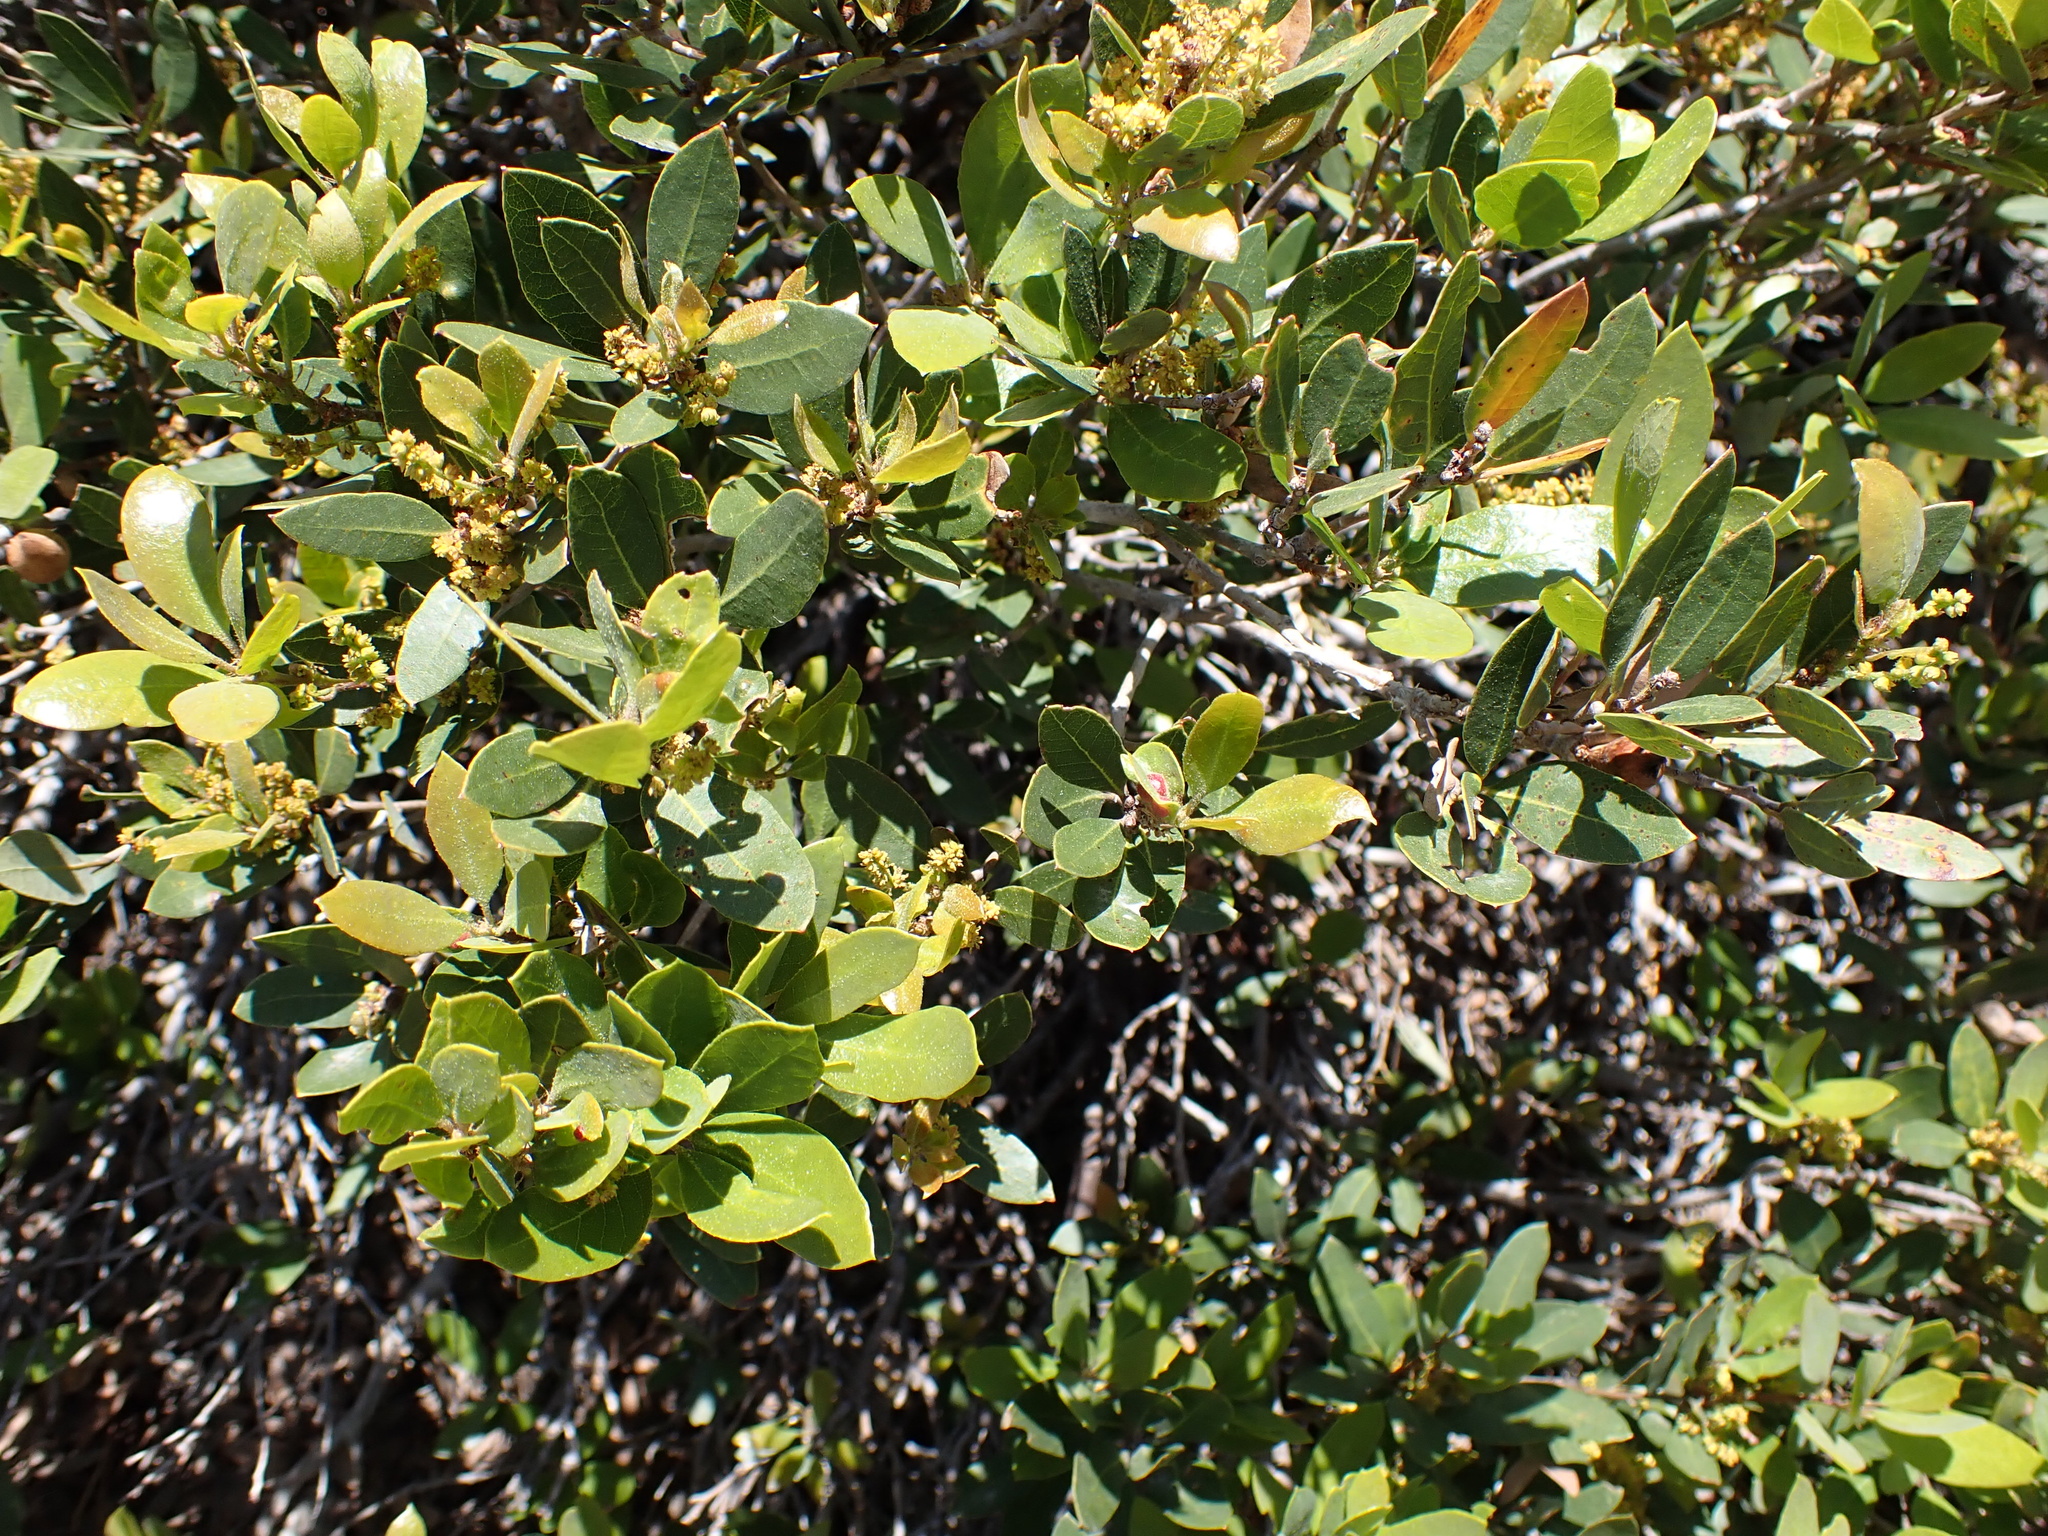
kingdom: Plantae
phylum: Tracheophyta
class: Magnoliopsida
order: Fagales
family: Fagaceae
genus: Quercus
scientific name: Quercus vacciniifolia
